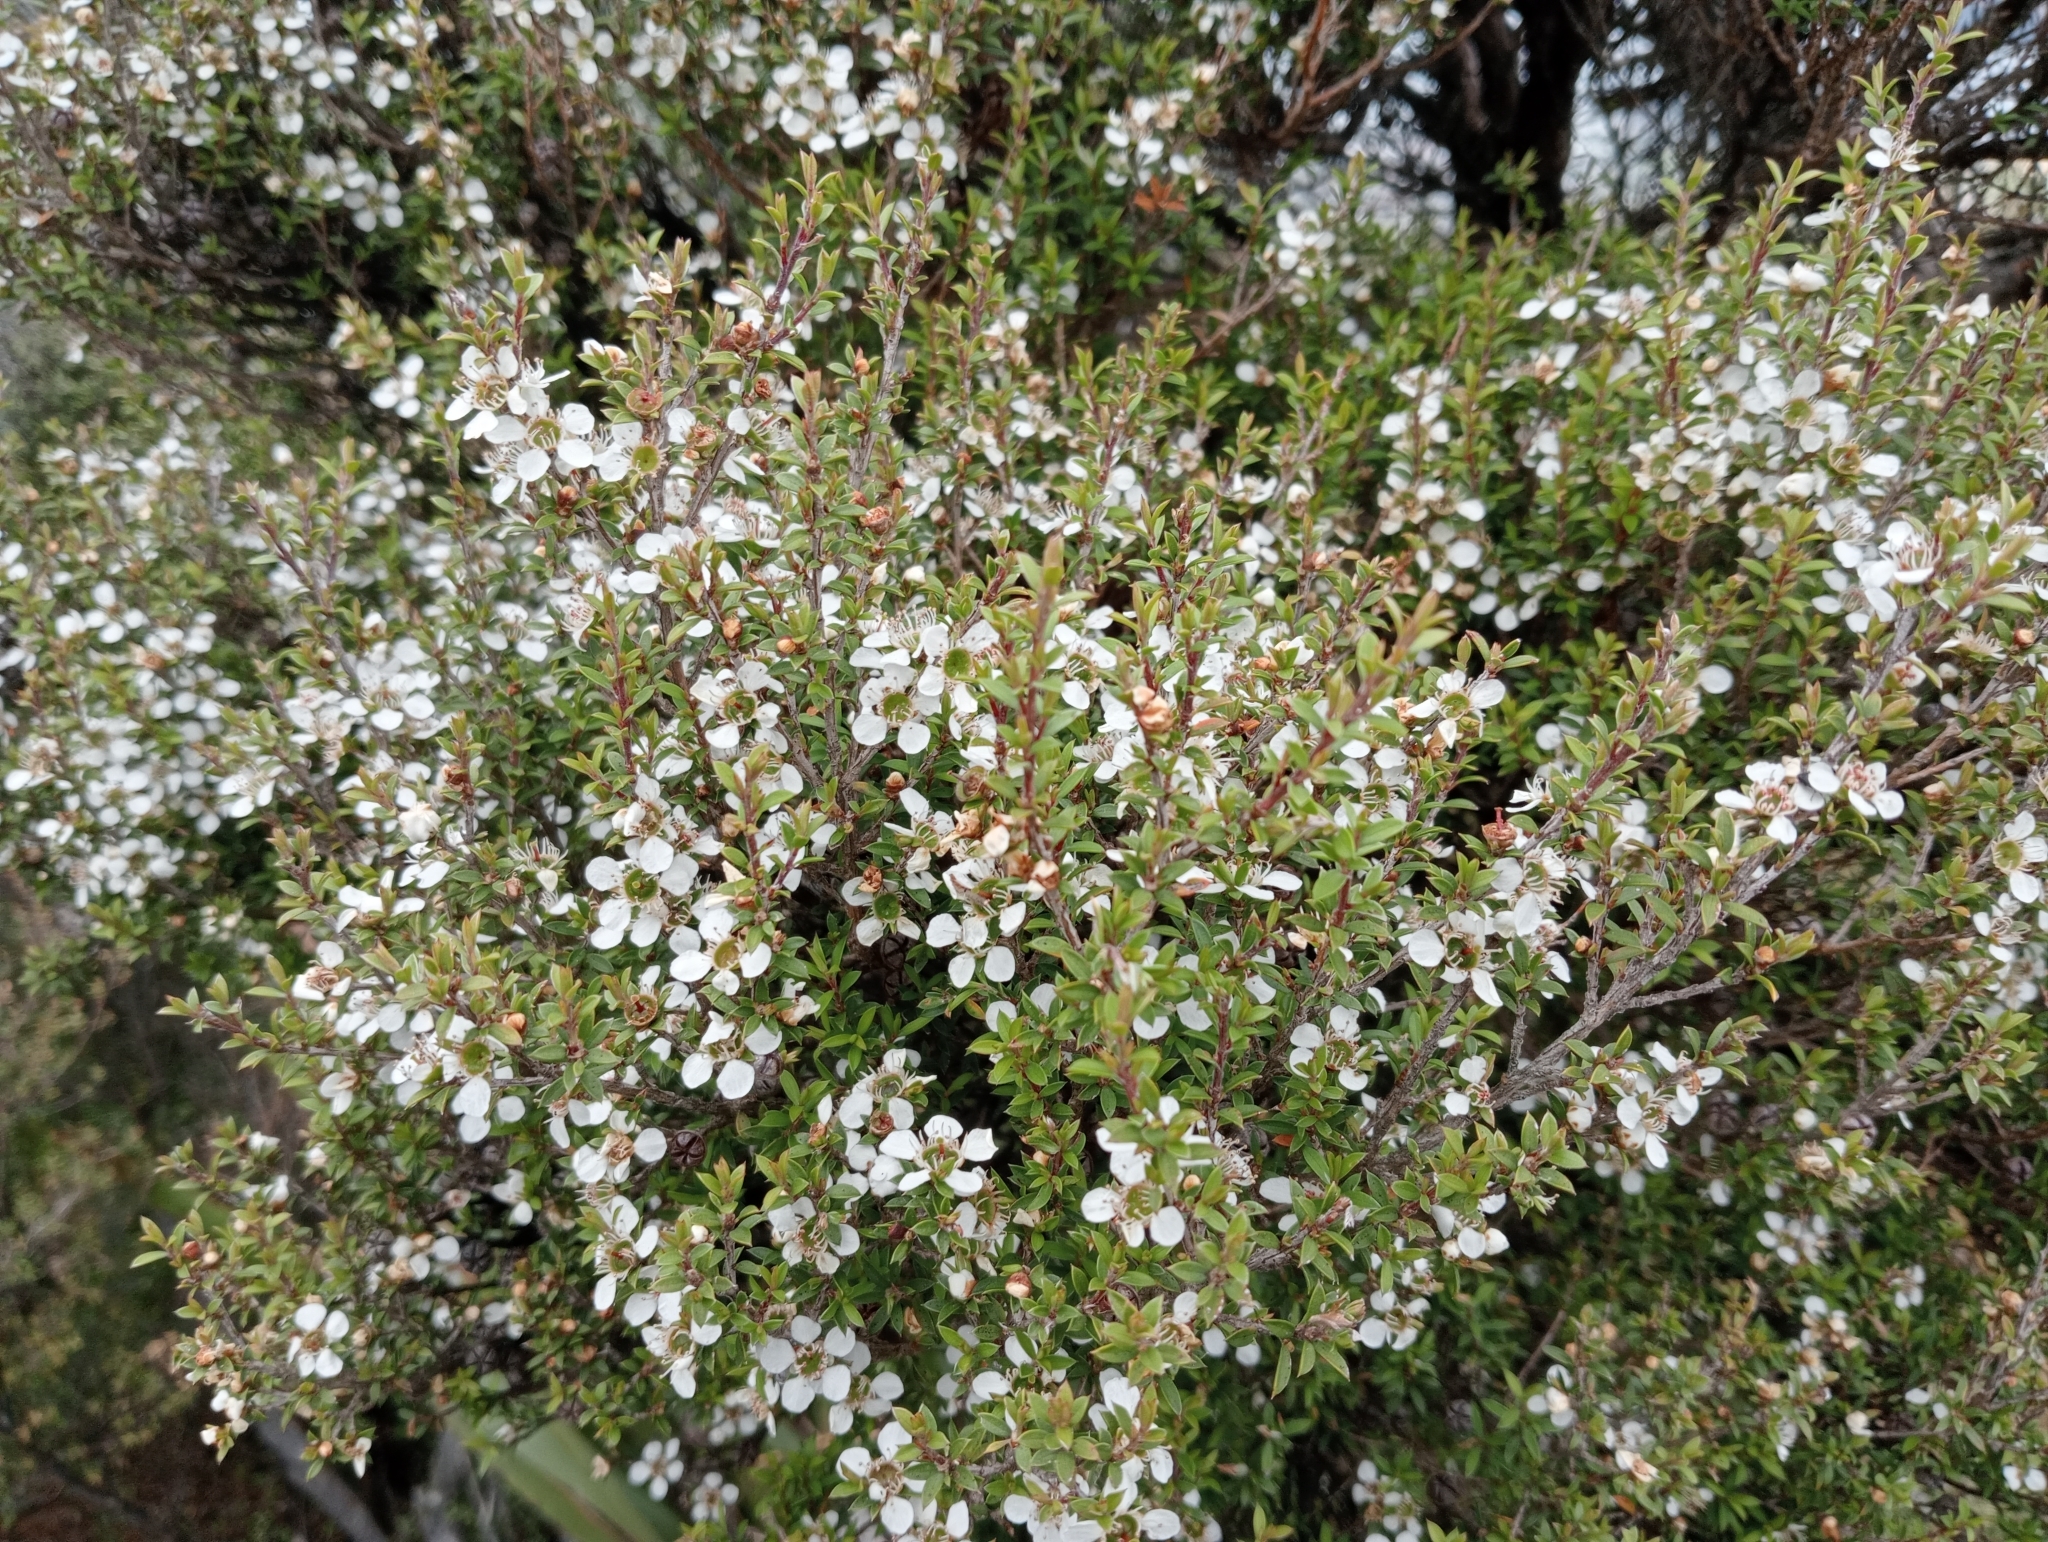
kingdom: Plantae
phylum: Tracheophyta
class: Magnoliopsida
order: Myrtales
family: Myrtaceae
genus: Leptospermum
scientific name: Leptospermum scoparium
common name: Broom tea-tree
